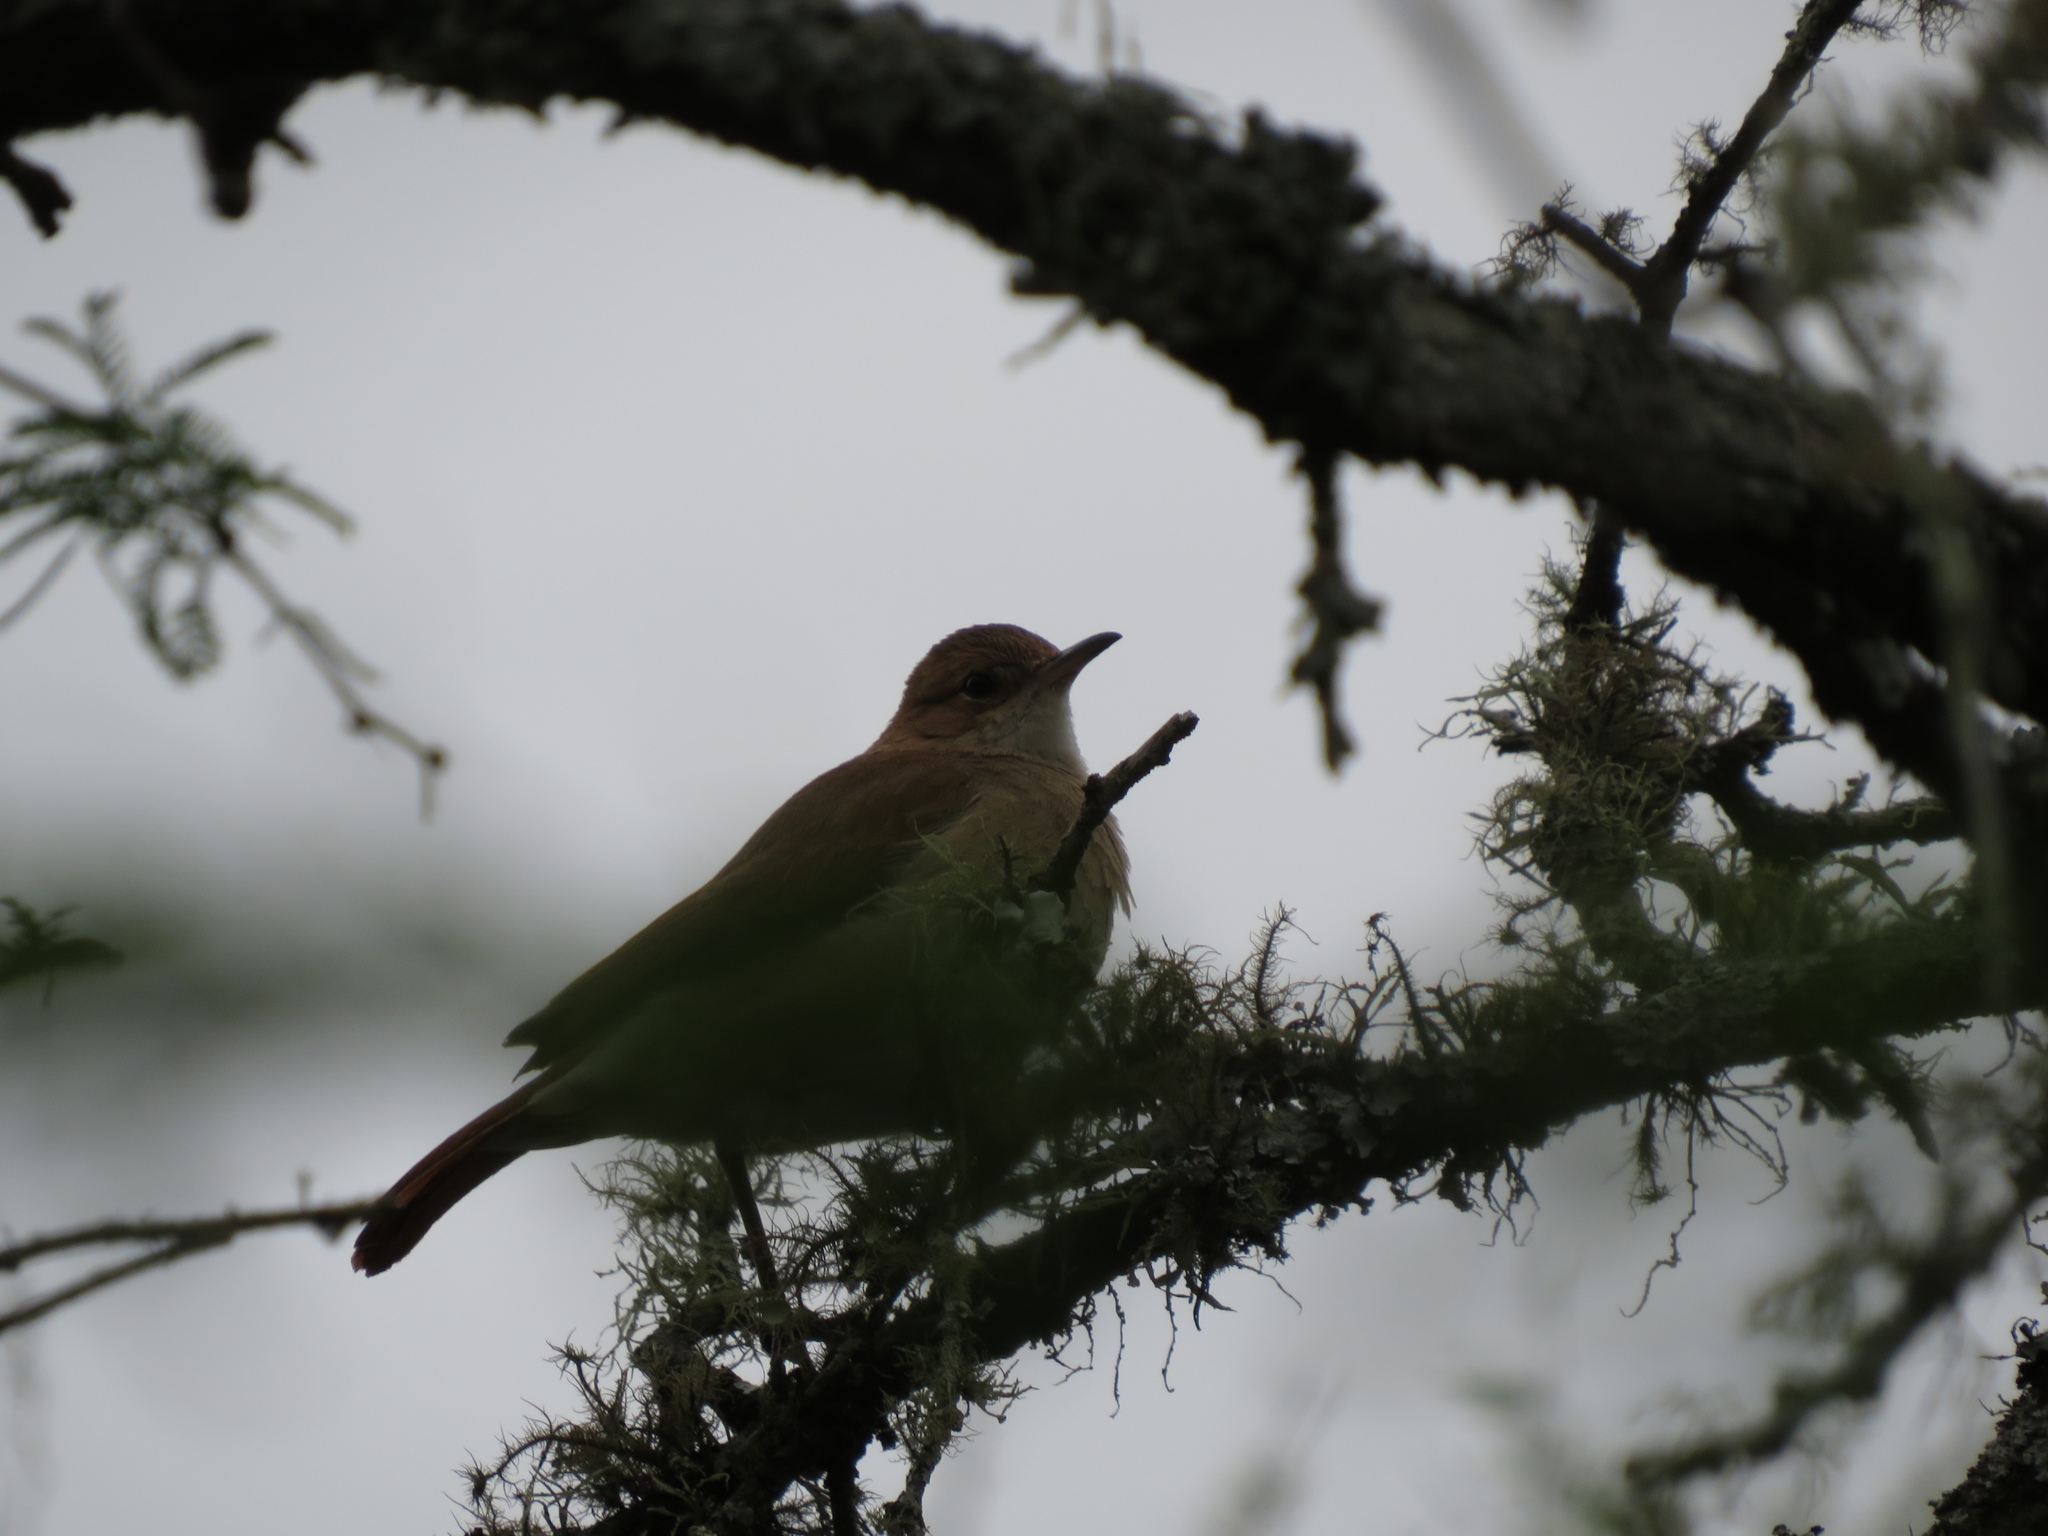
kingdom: Animalia
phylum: Chordata
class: Aves
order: Passeriformes
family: Furnariidae
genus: Furnarius
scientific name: Furnarius rufus
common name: Rufous hornero
